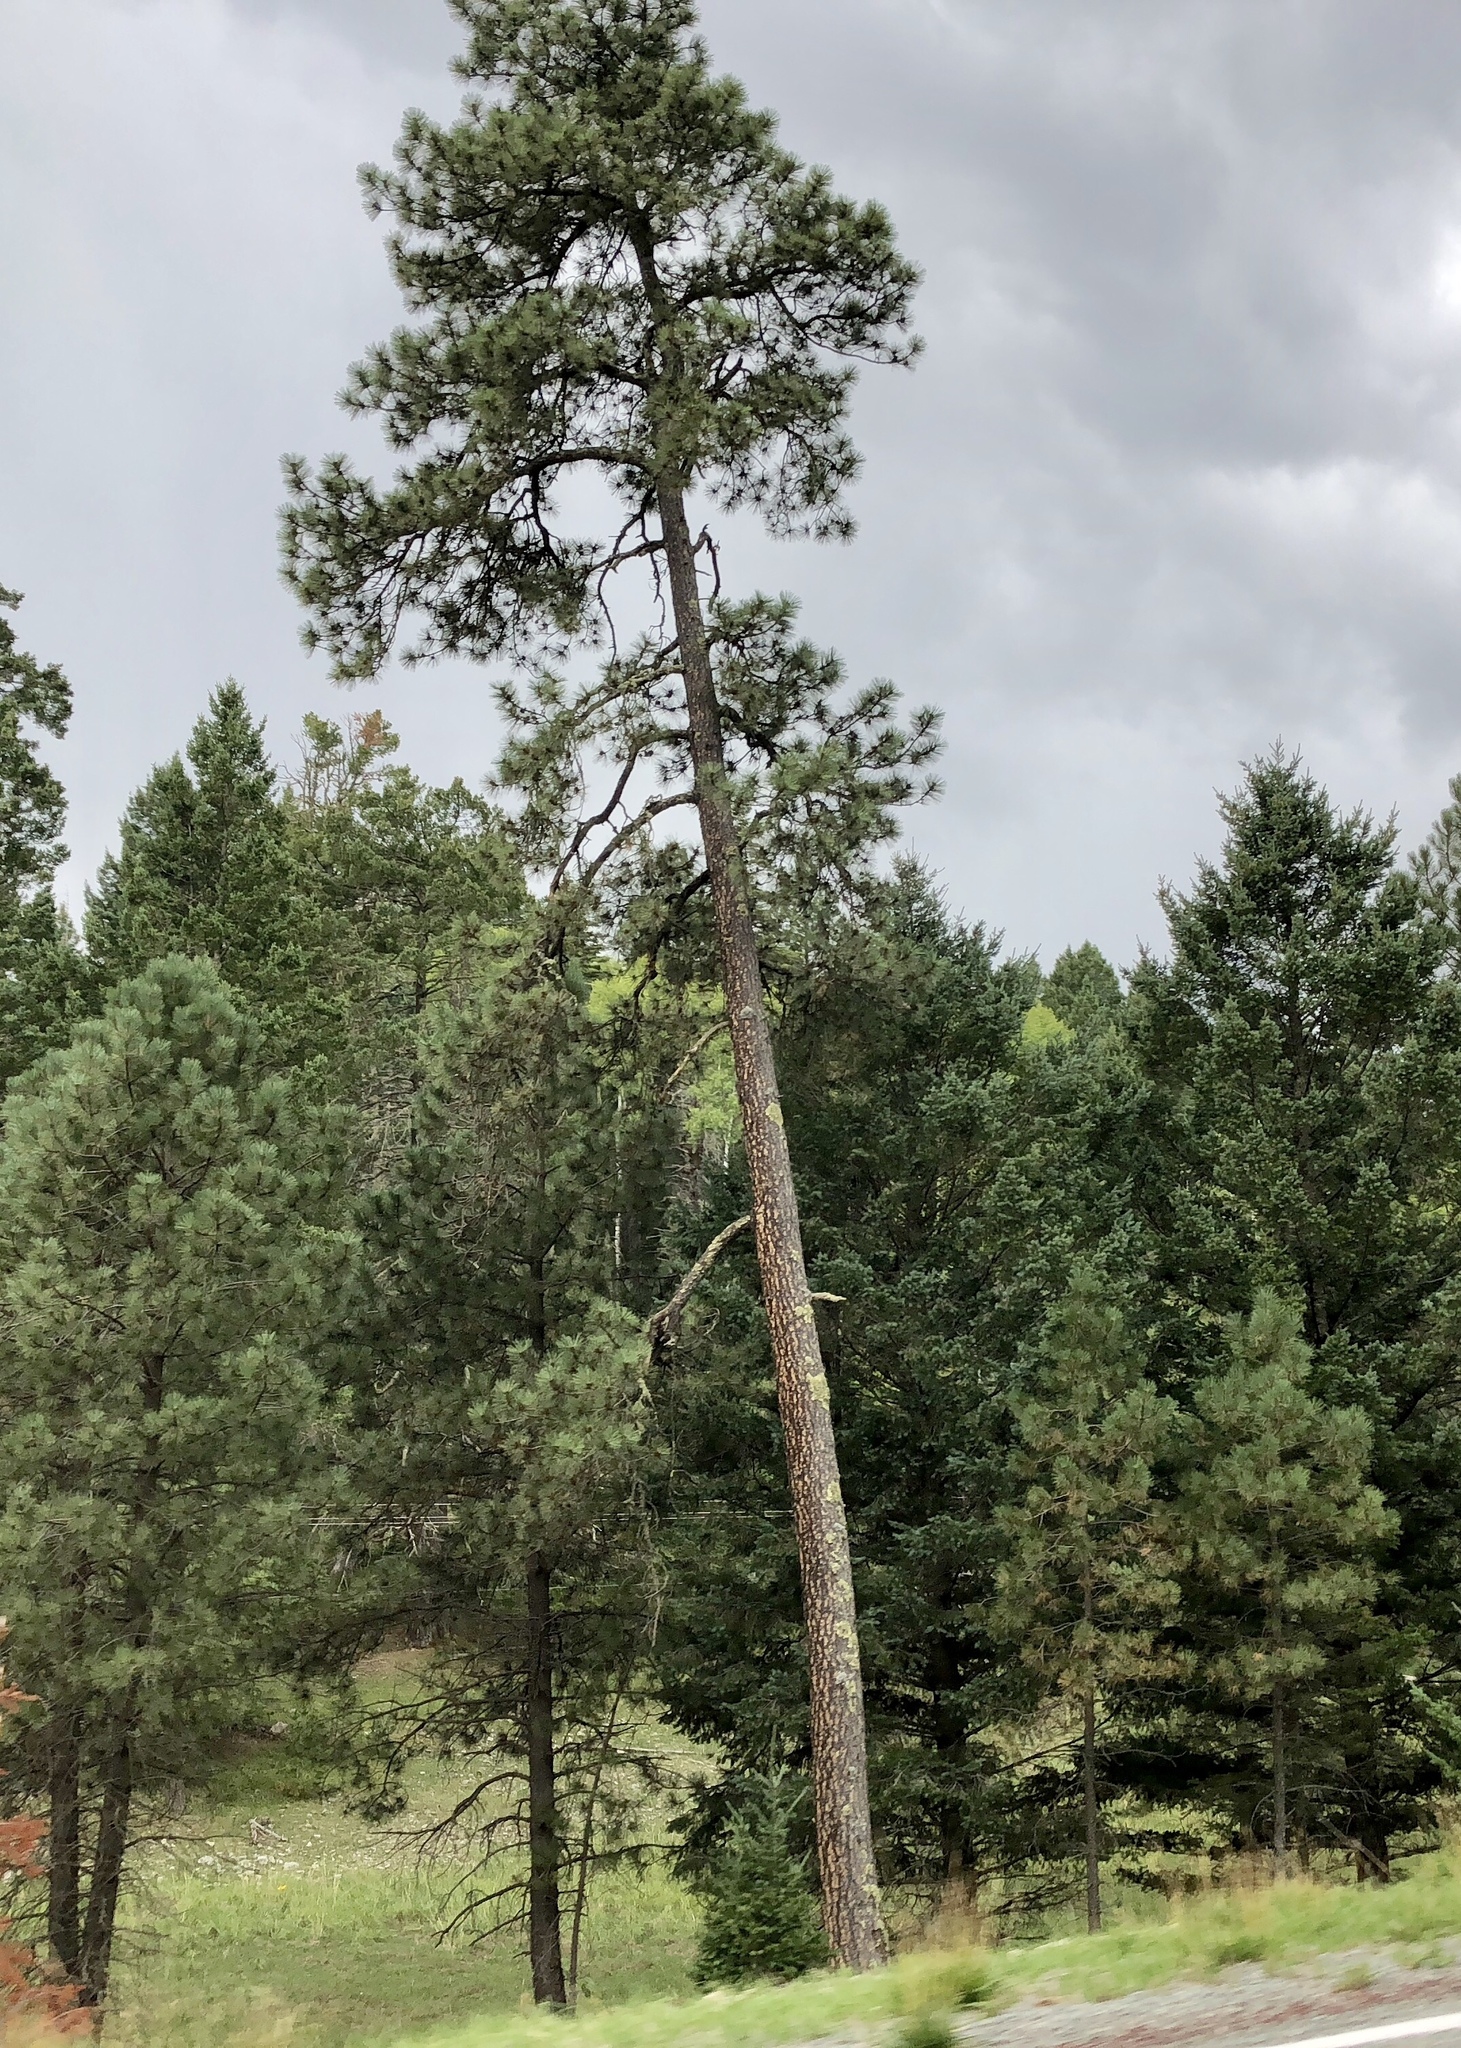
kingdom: Plantae
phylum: Tracheophyta
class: Pinopsida
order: Pinales
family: Pinaceae
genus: Pinus
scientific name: Pinus ponderosa
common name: Western yellow-pine
